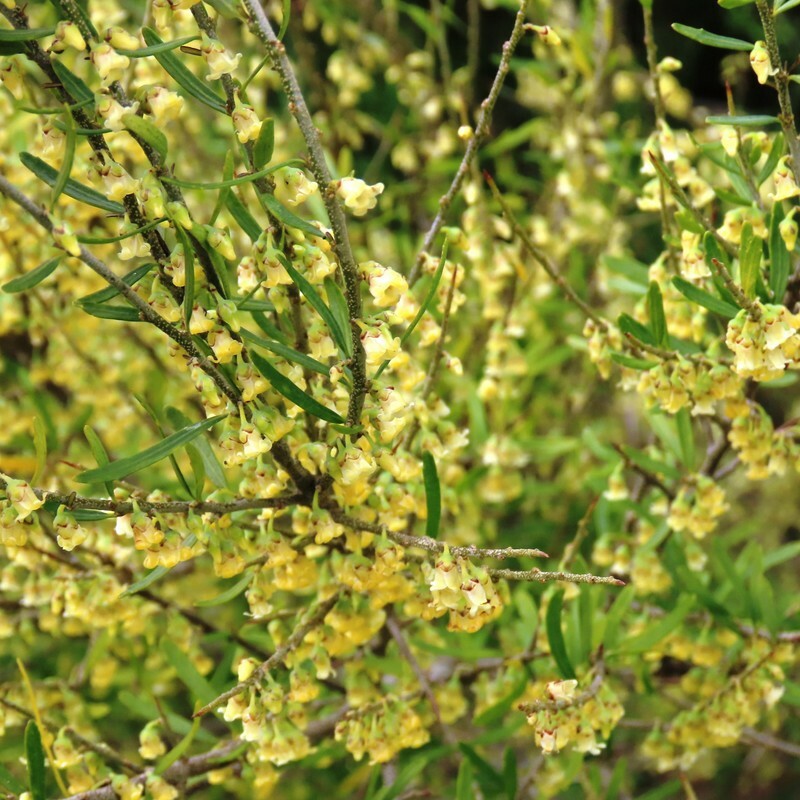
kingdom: Plantae
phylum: Tracheophyta
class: Magnoliopsida
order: Malpighiales
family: Violaceae
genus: Melicytus
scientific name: Melicytus dentatus
